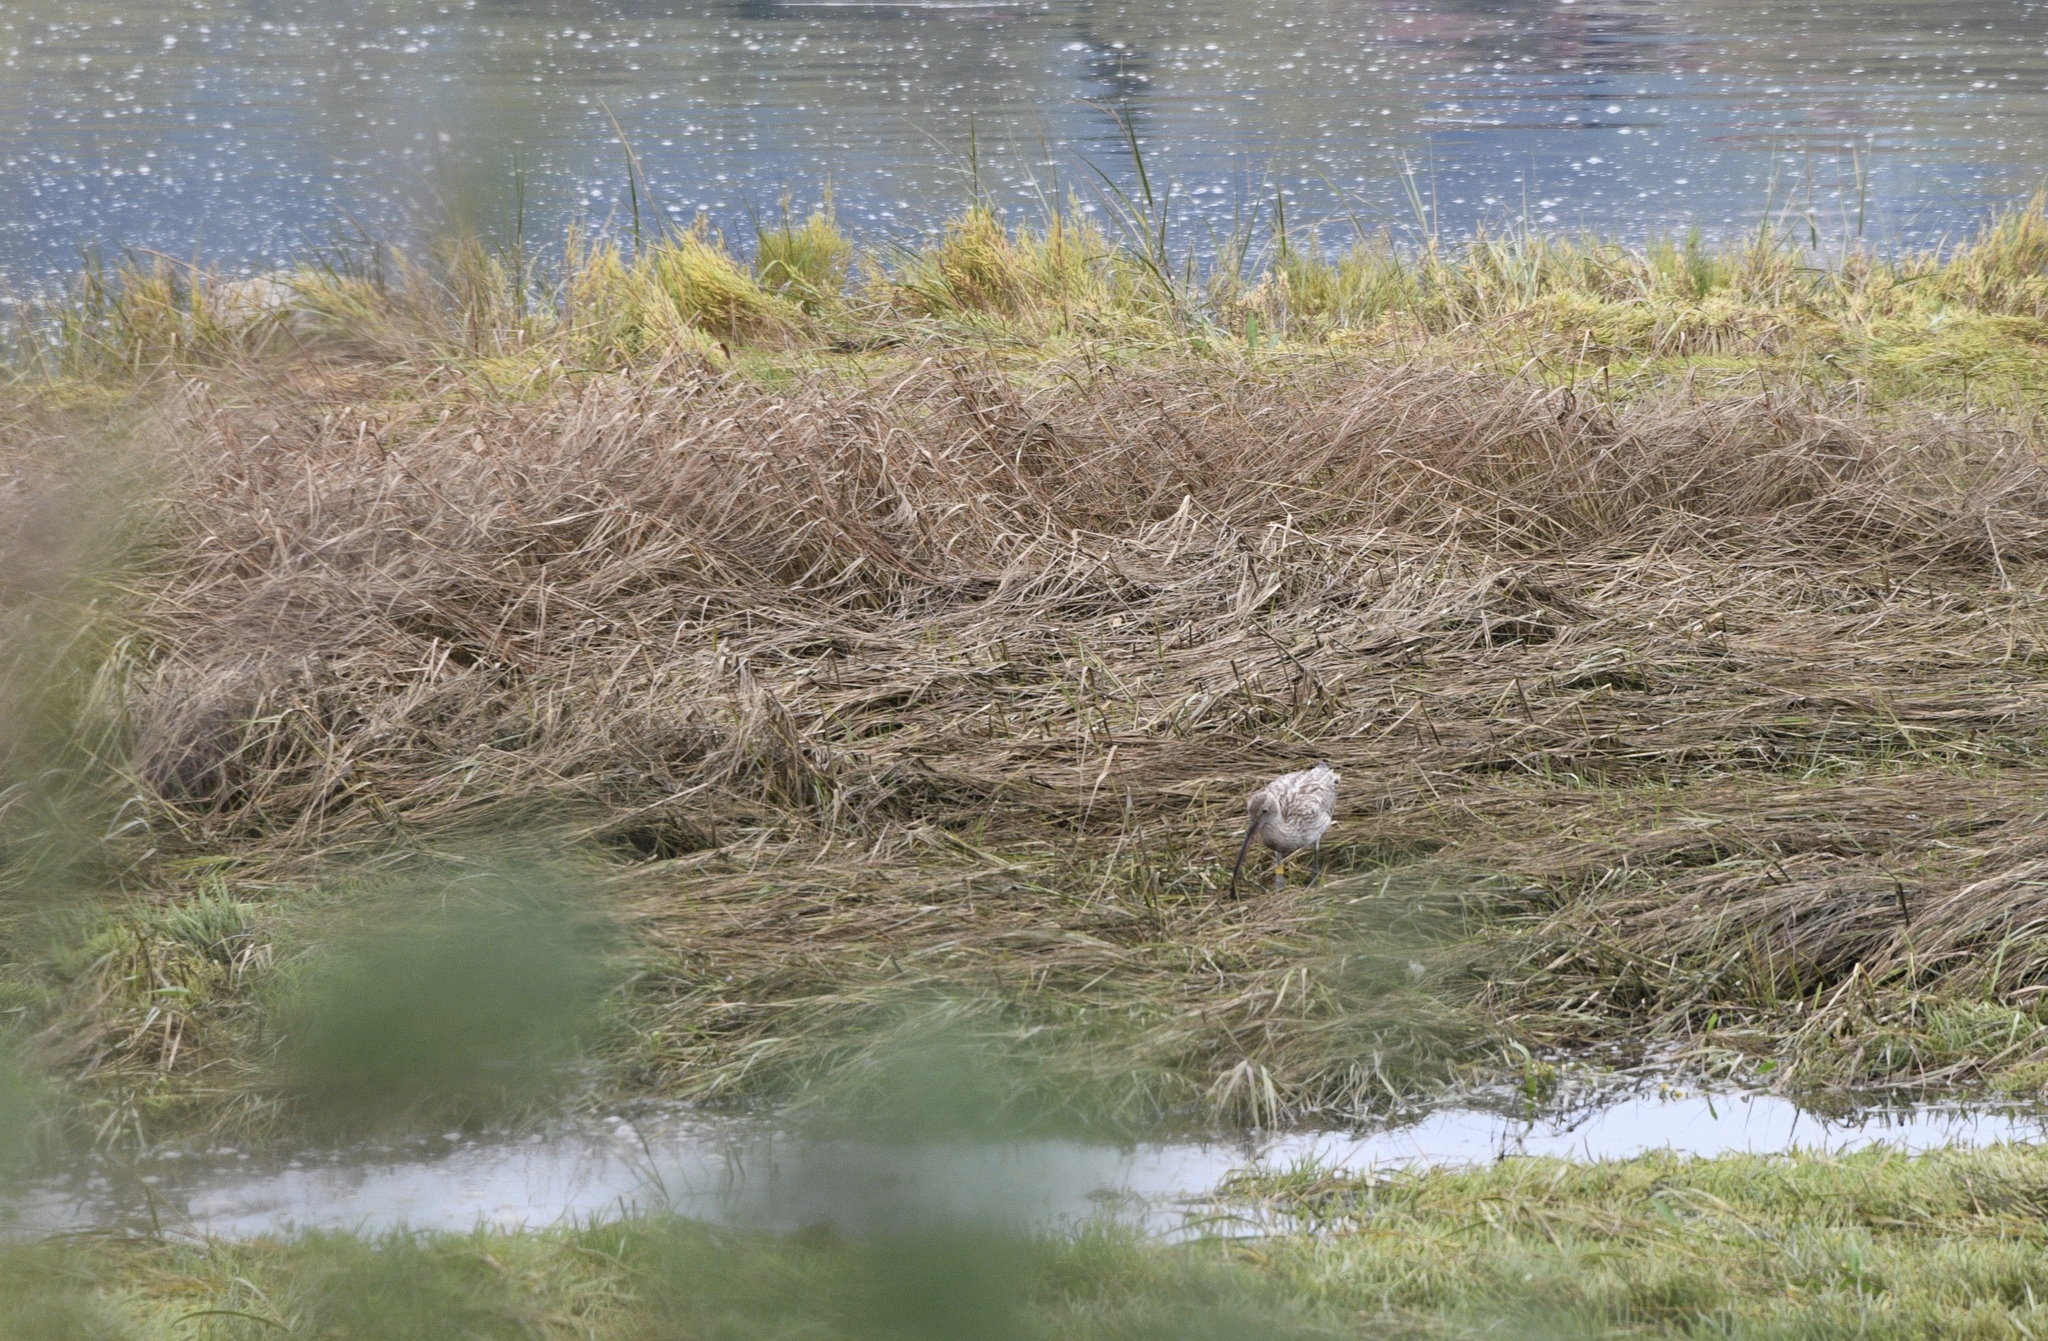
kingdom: Animalia
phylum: Chordata
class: Aves
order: Charadriiformes
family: Scolopacidae
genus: Numenius
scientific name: Numenius arquata
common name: Eurasian curlew
